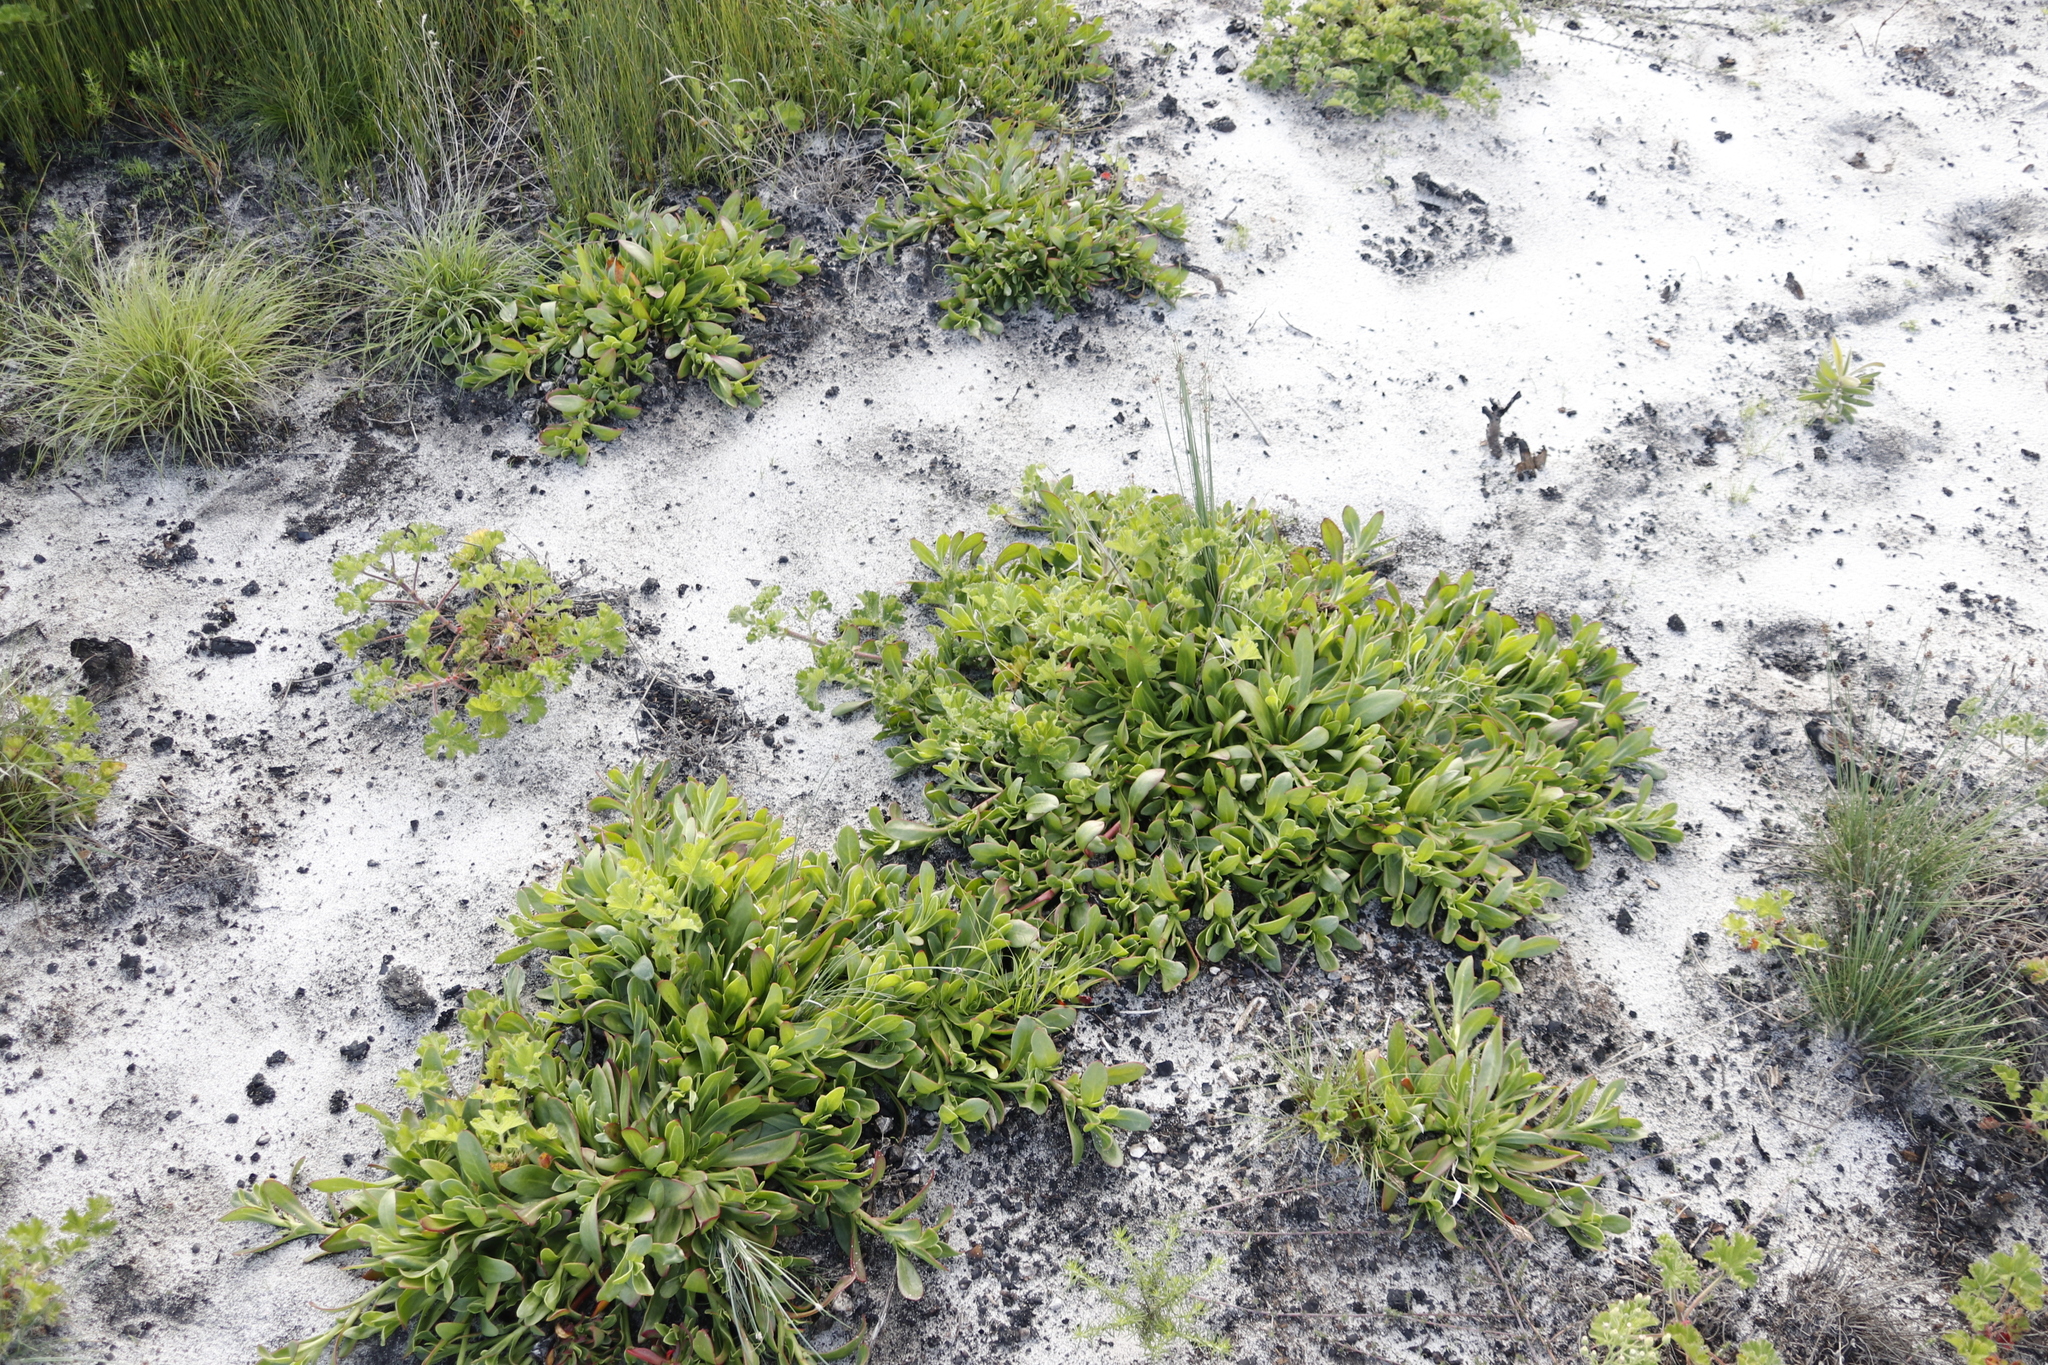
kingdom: Plantae
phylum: Tracheophyta
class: Magnoliopsida
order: Caryophyllales
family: Aizoaceae
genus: Skiatophytum
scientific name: Skiatophytum tripolium
